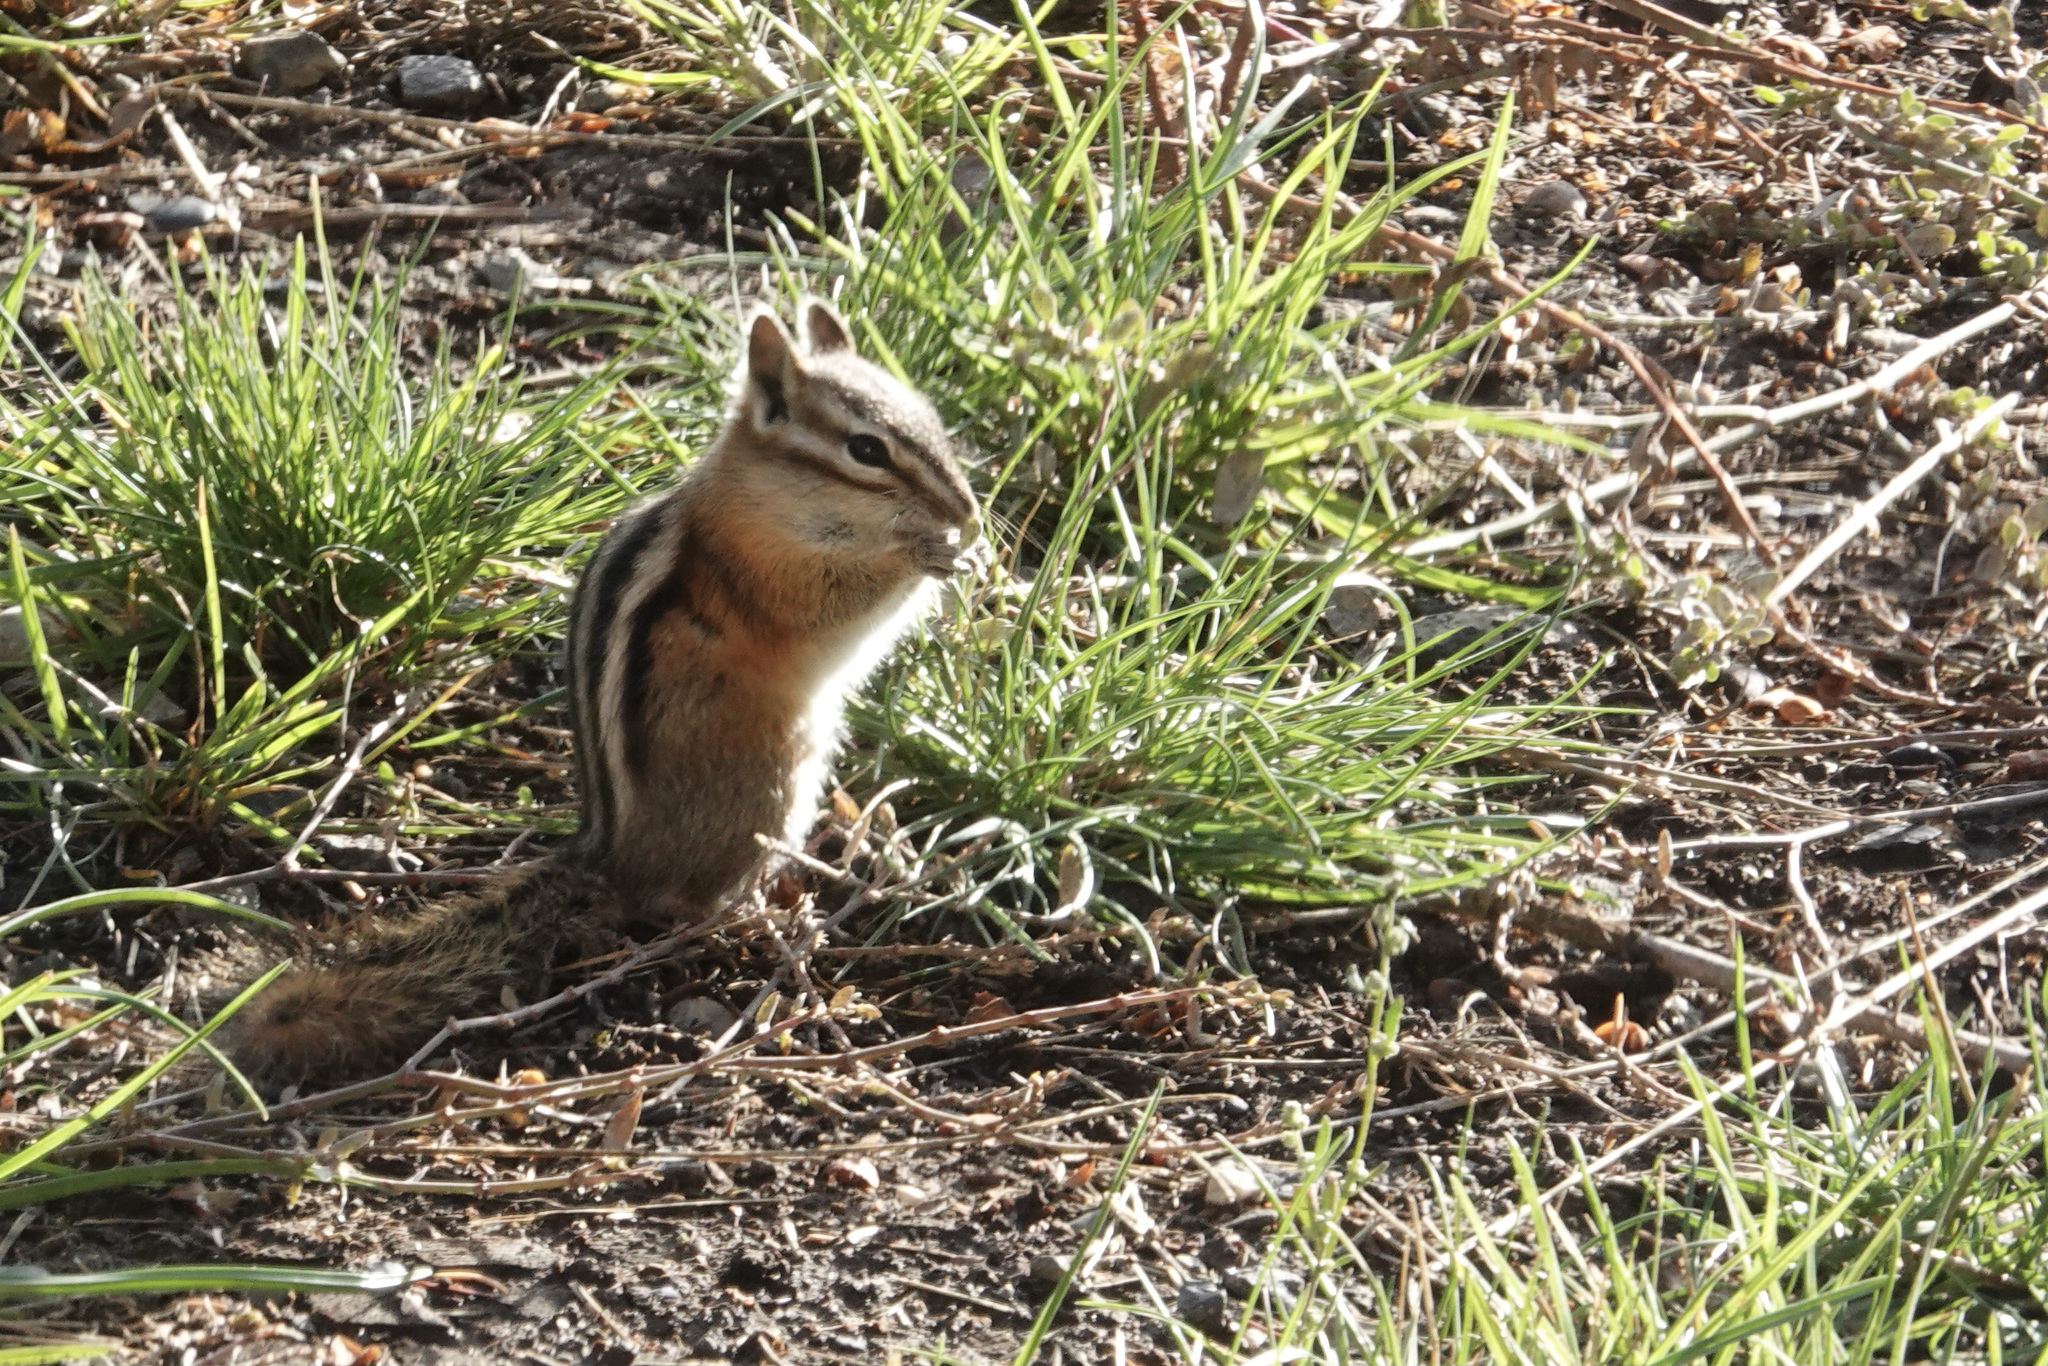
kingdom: Animalia
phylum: Chordata
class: Mammalia
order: Rodentia
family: Sciuridae
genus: Tamias
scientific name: Tamias amoenus
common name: Yellow-pine chipmunk
